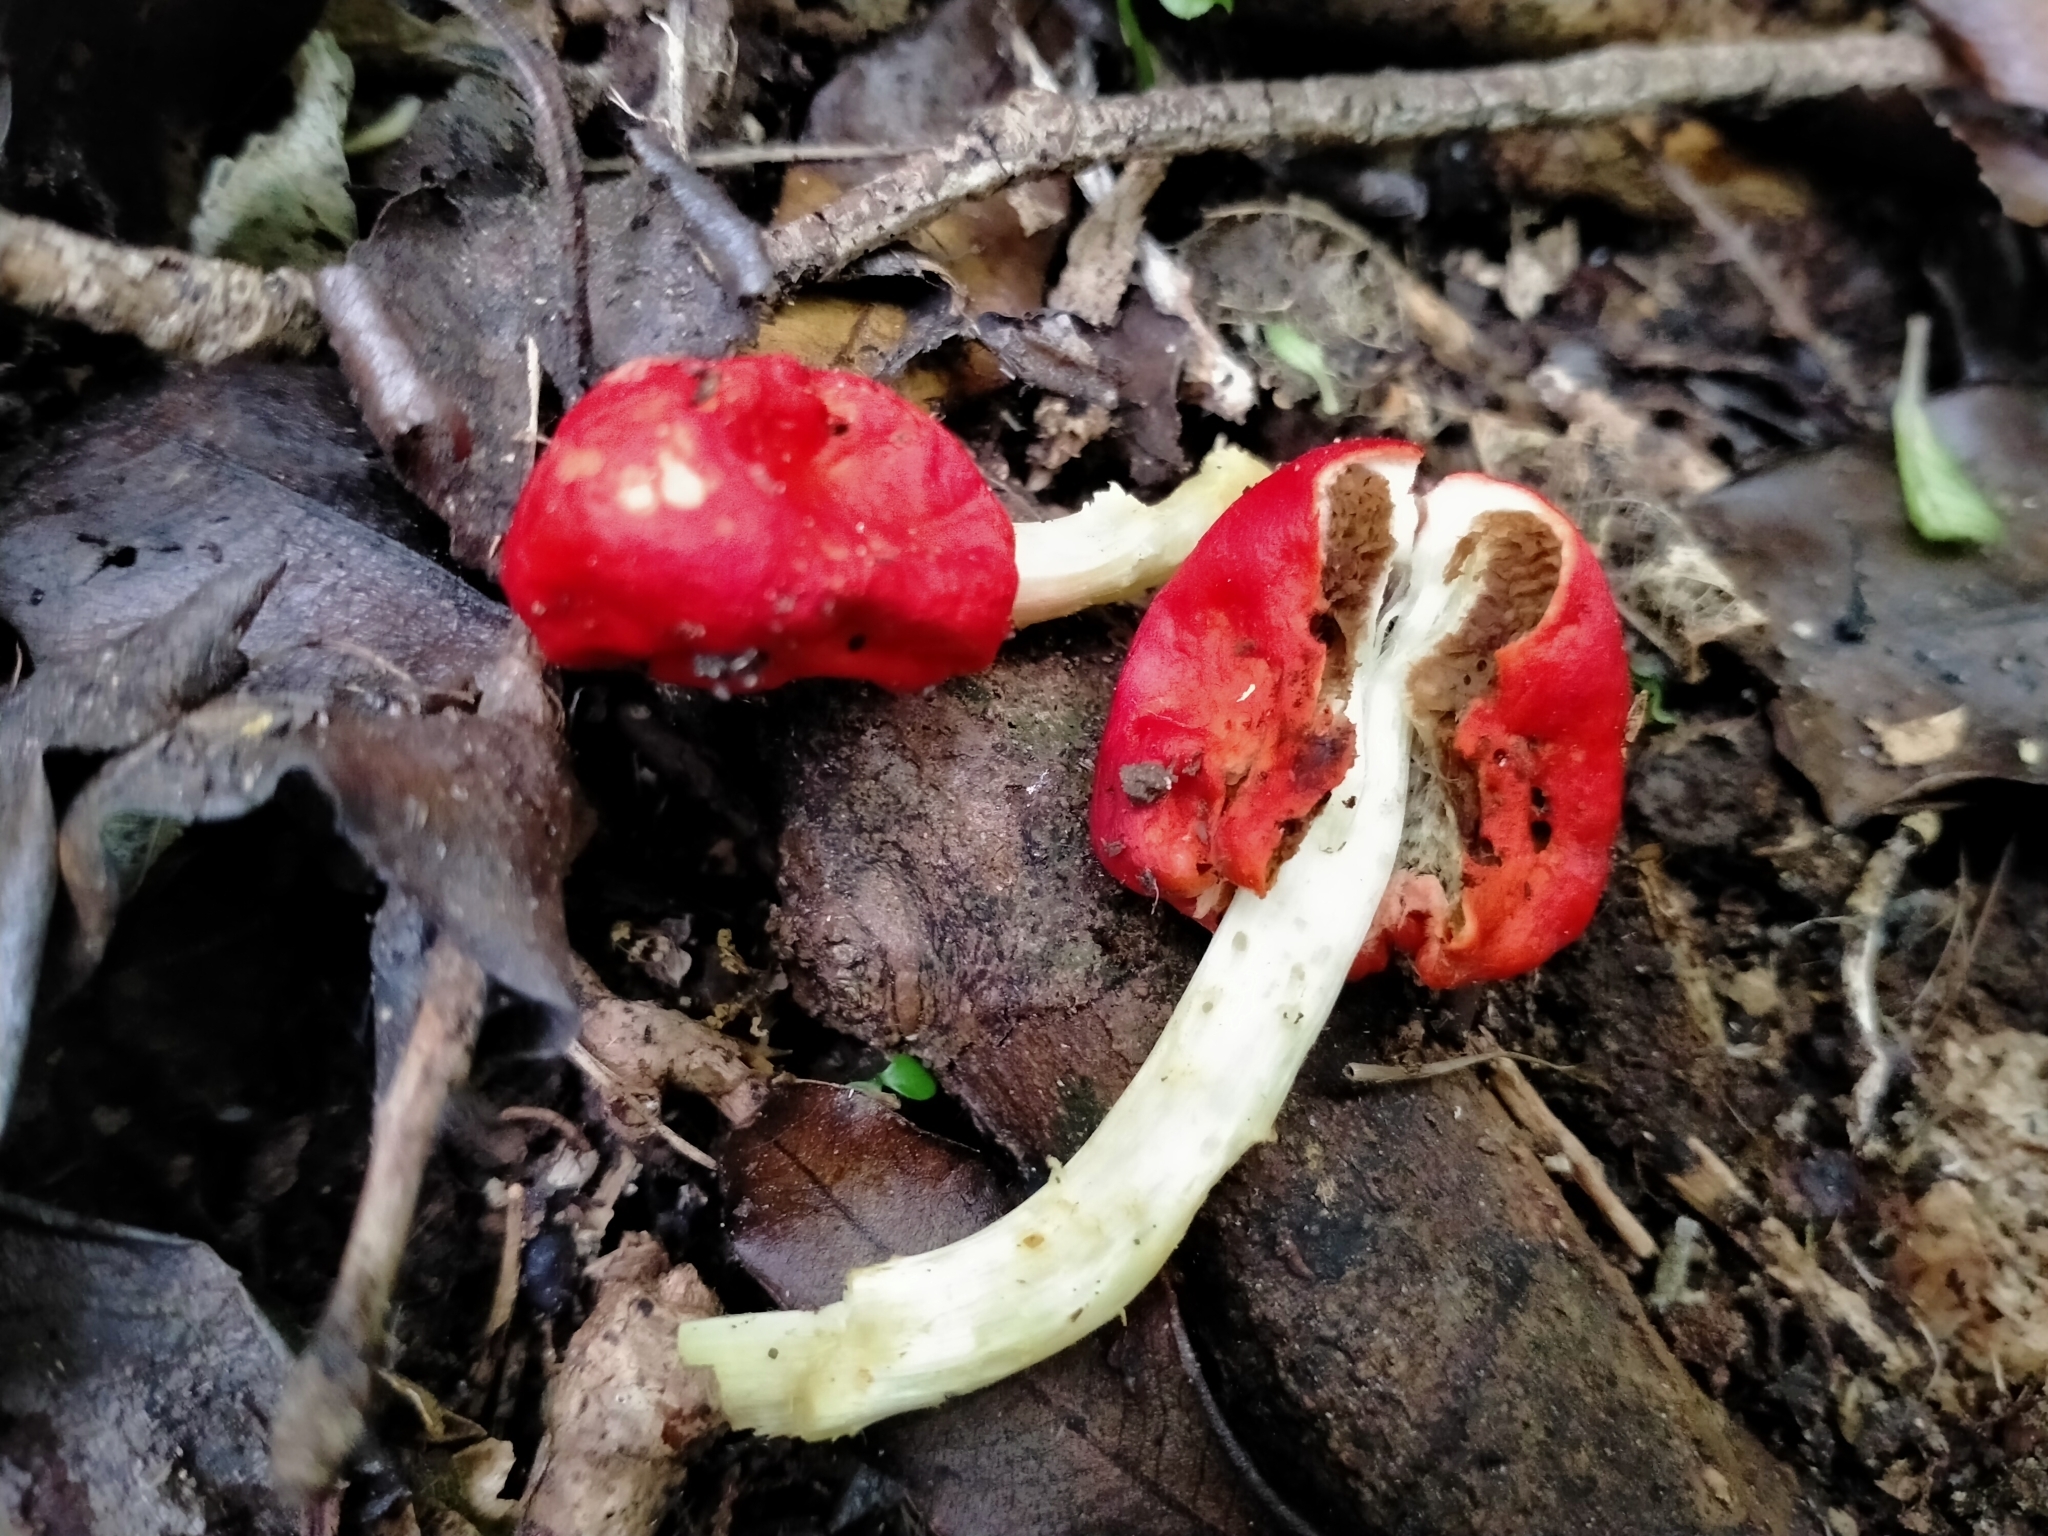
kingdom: Fungi
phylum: Basidiomycota
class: Agaricomycetes
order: Agaricales
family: Strophariaceae
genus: Leratiomyces
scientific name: Leratiomyces erythrocephalus
